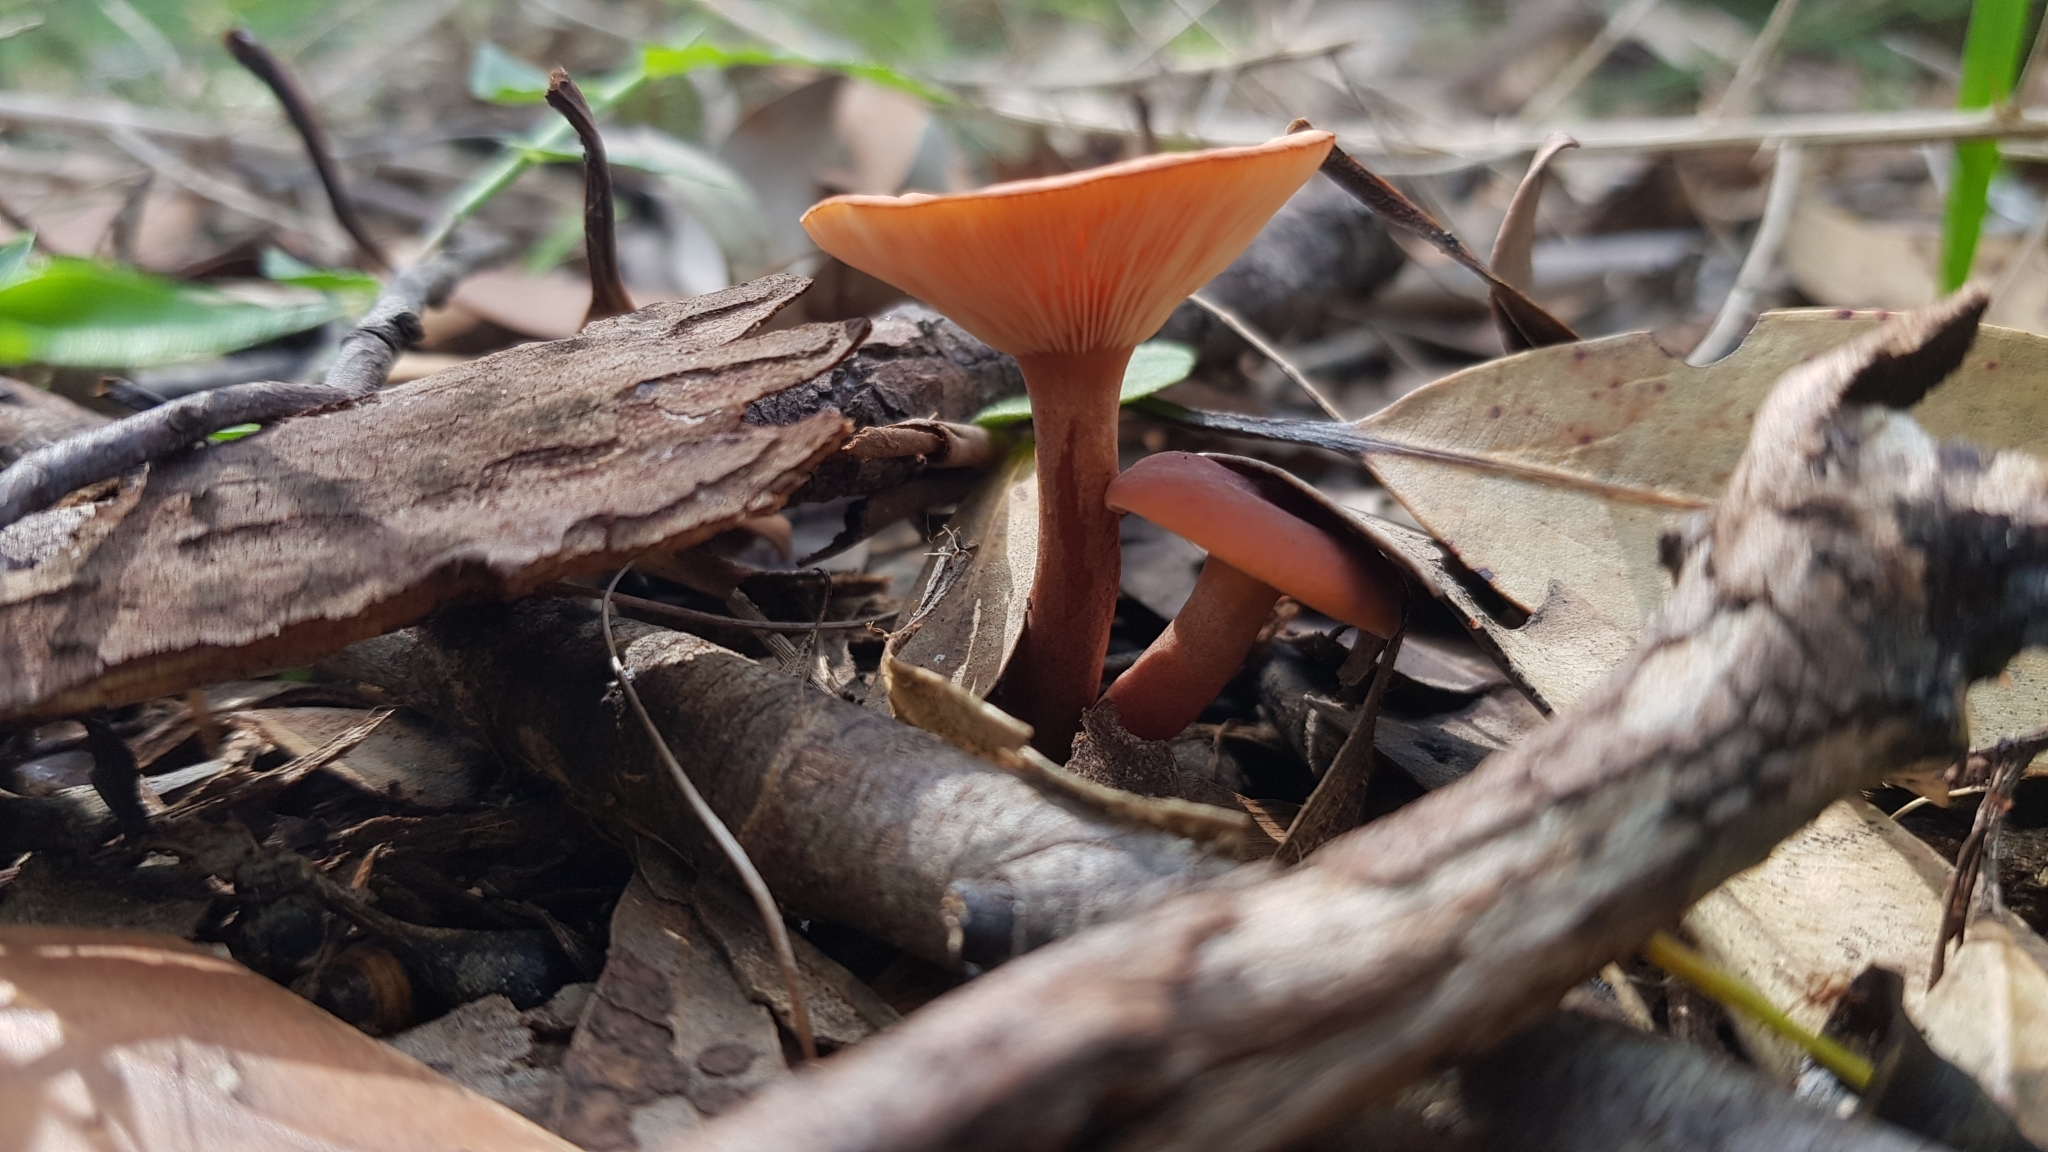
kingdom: Fungi
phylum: Basidiomycota
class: Agaricomycetes
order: Russulales
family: Russulaceae
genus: Lactarius
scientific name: Lactarius eucalypti
